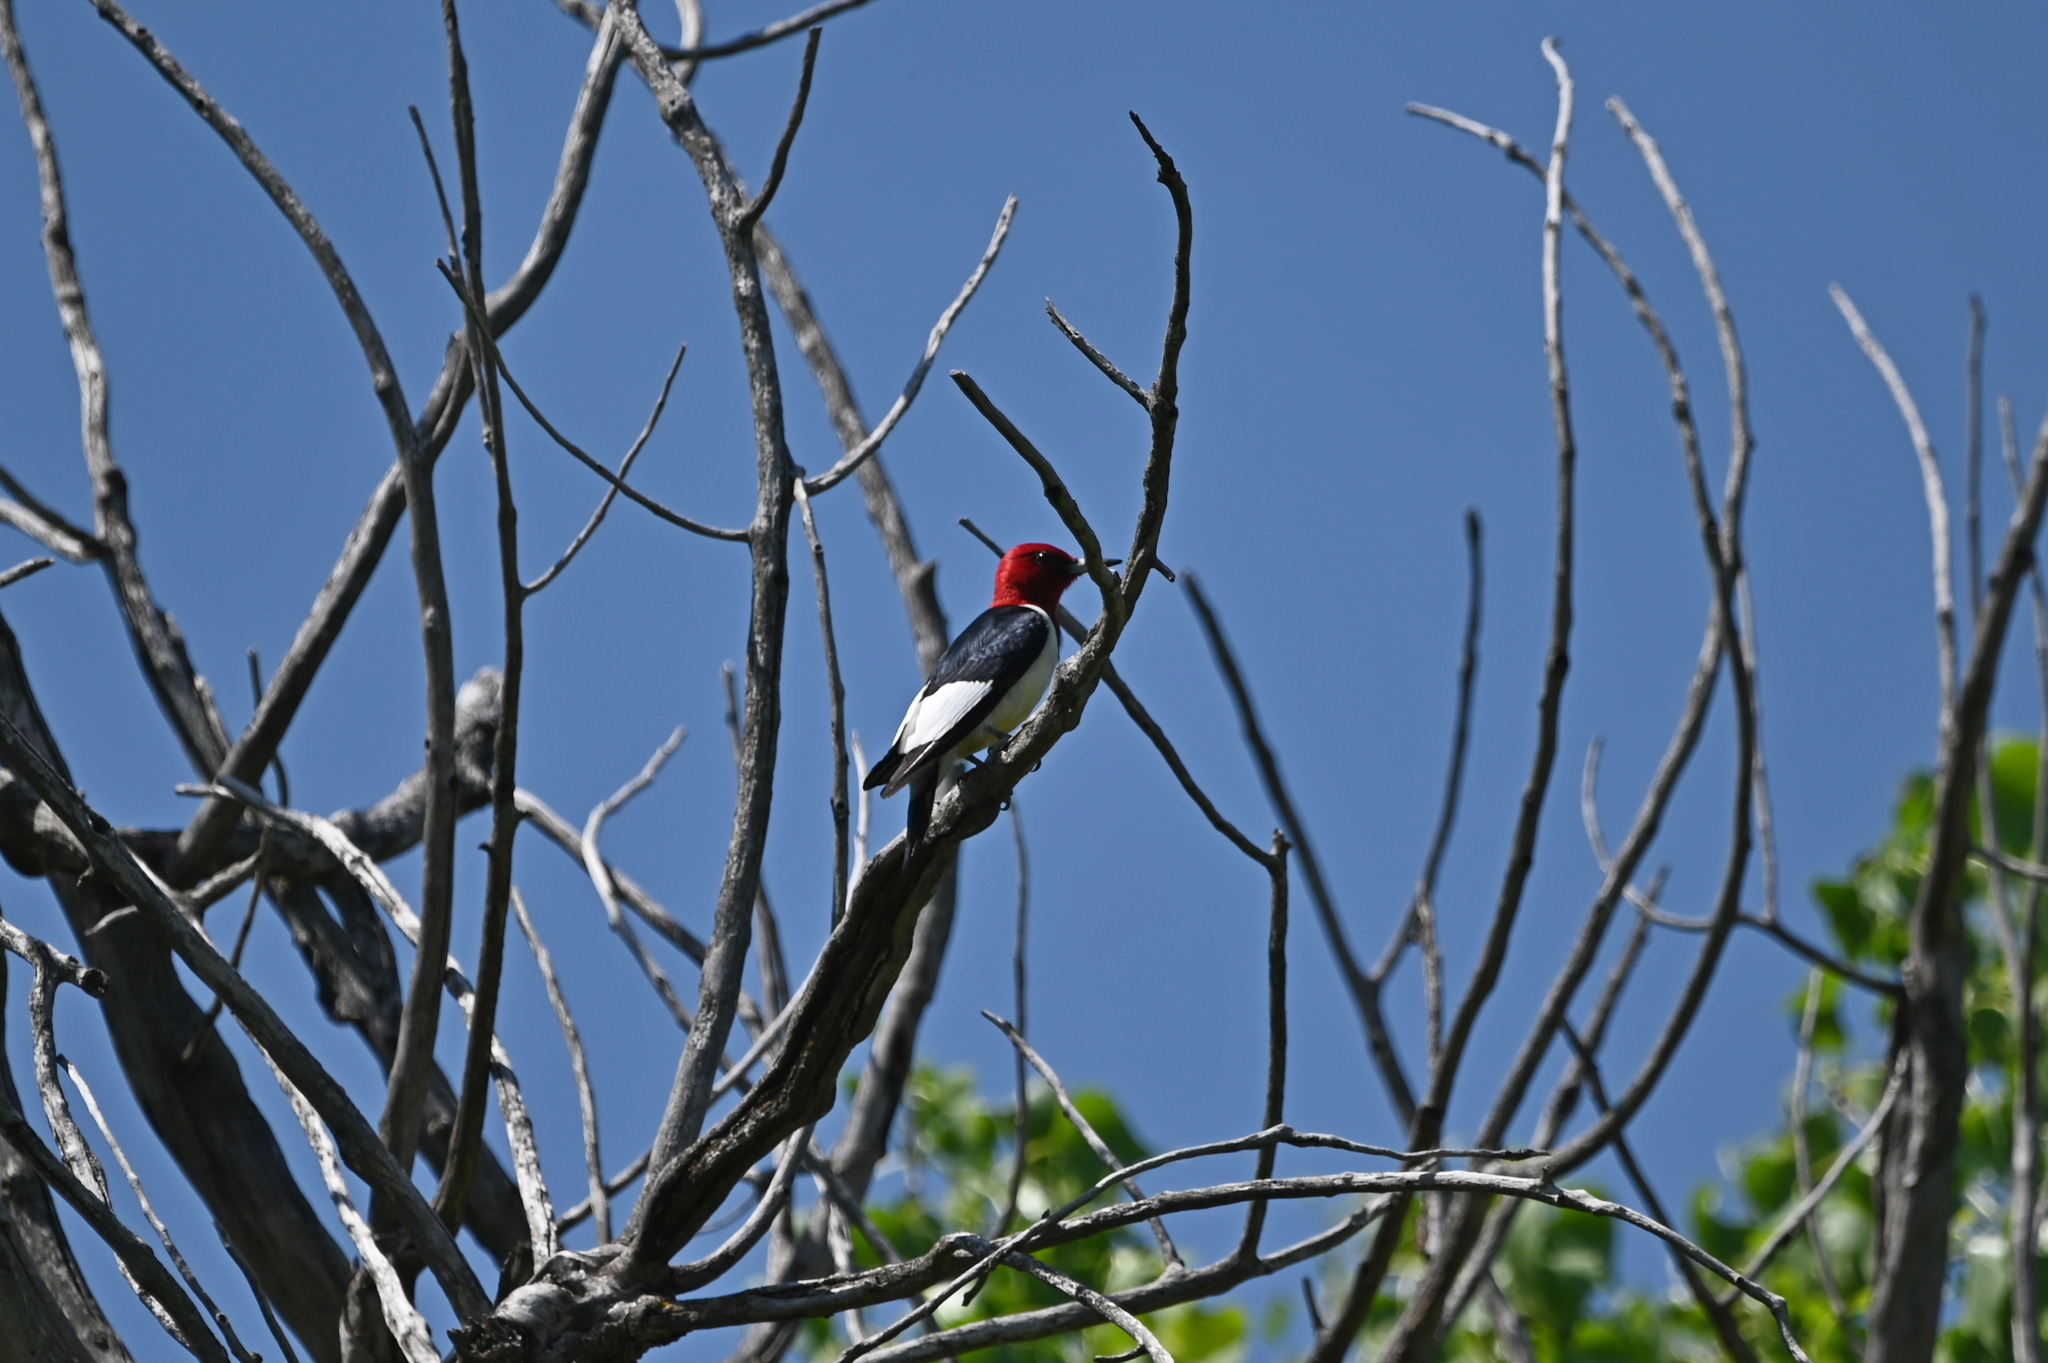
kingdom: Animalia
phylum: Chordata
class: Aves
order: Piciformes
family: Picidae
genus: Melanerpes
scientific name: Melanerpes erythrocephalus
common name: Red-headed woodpecker
